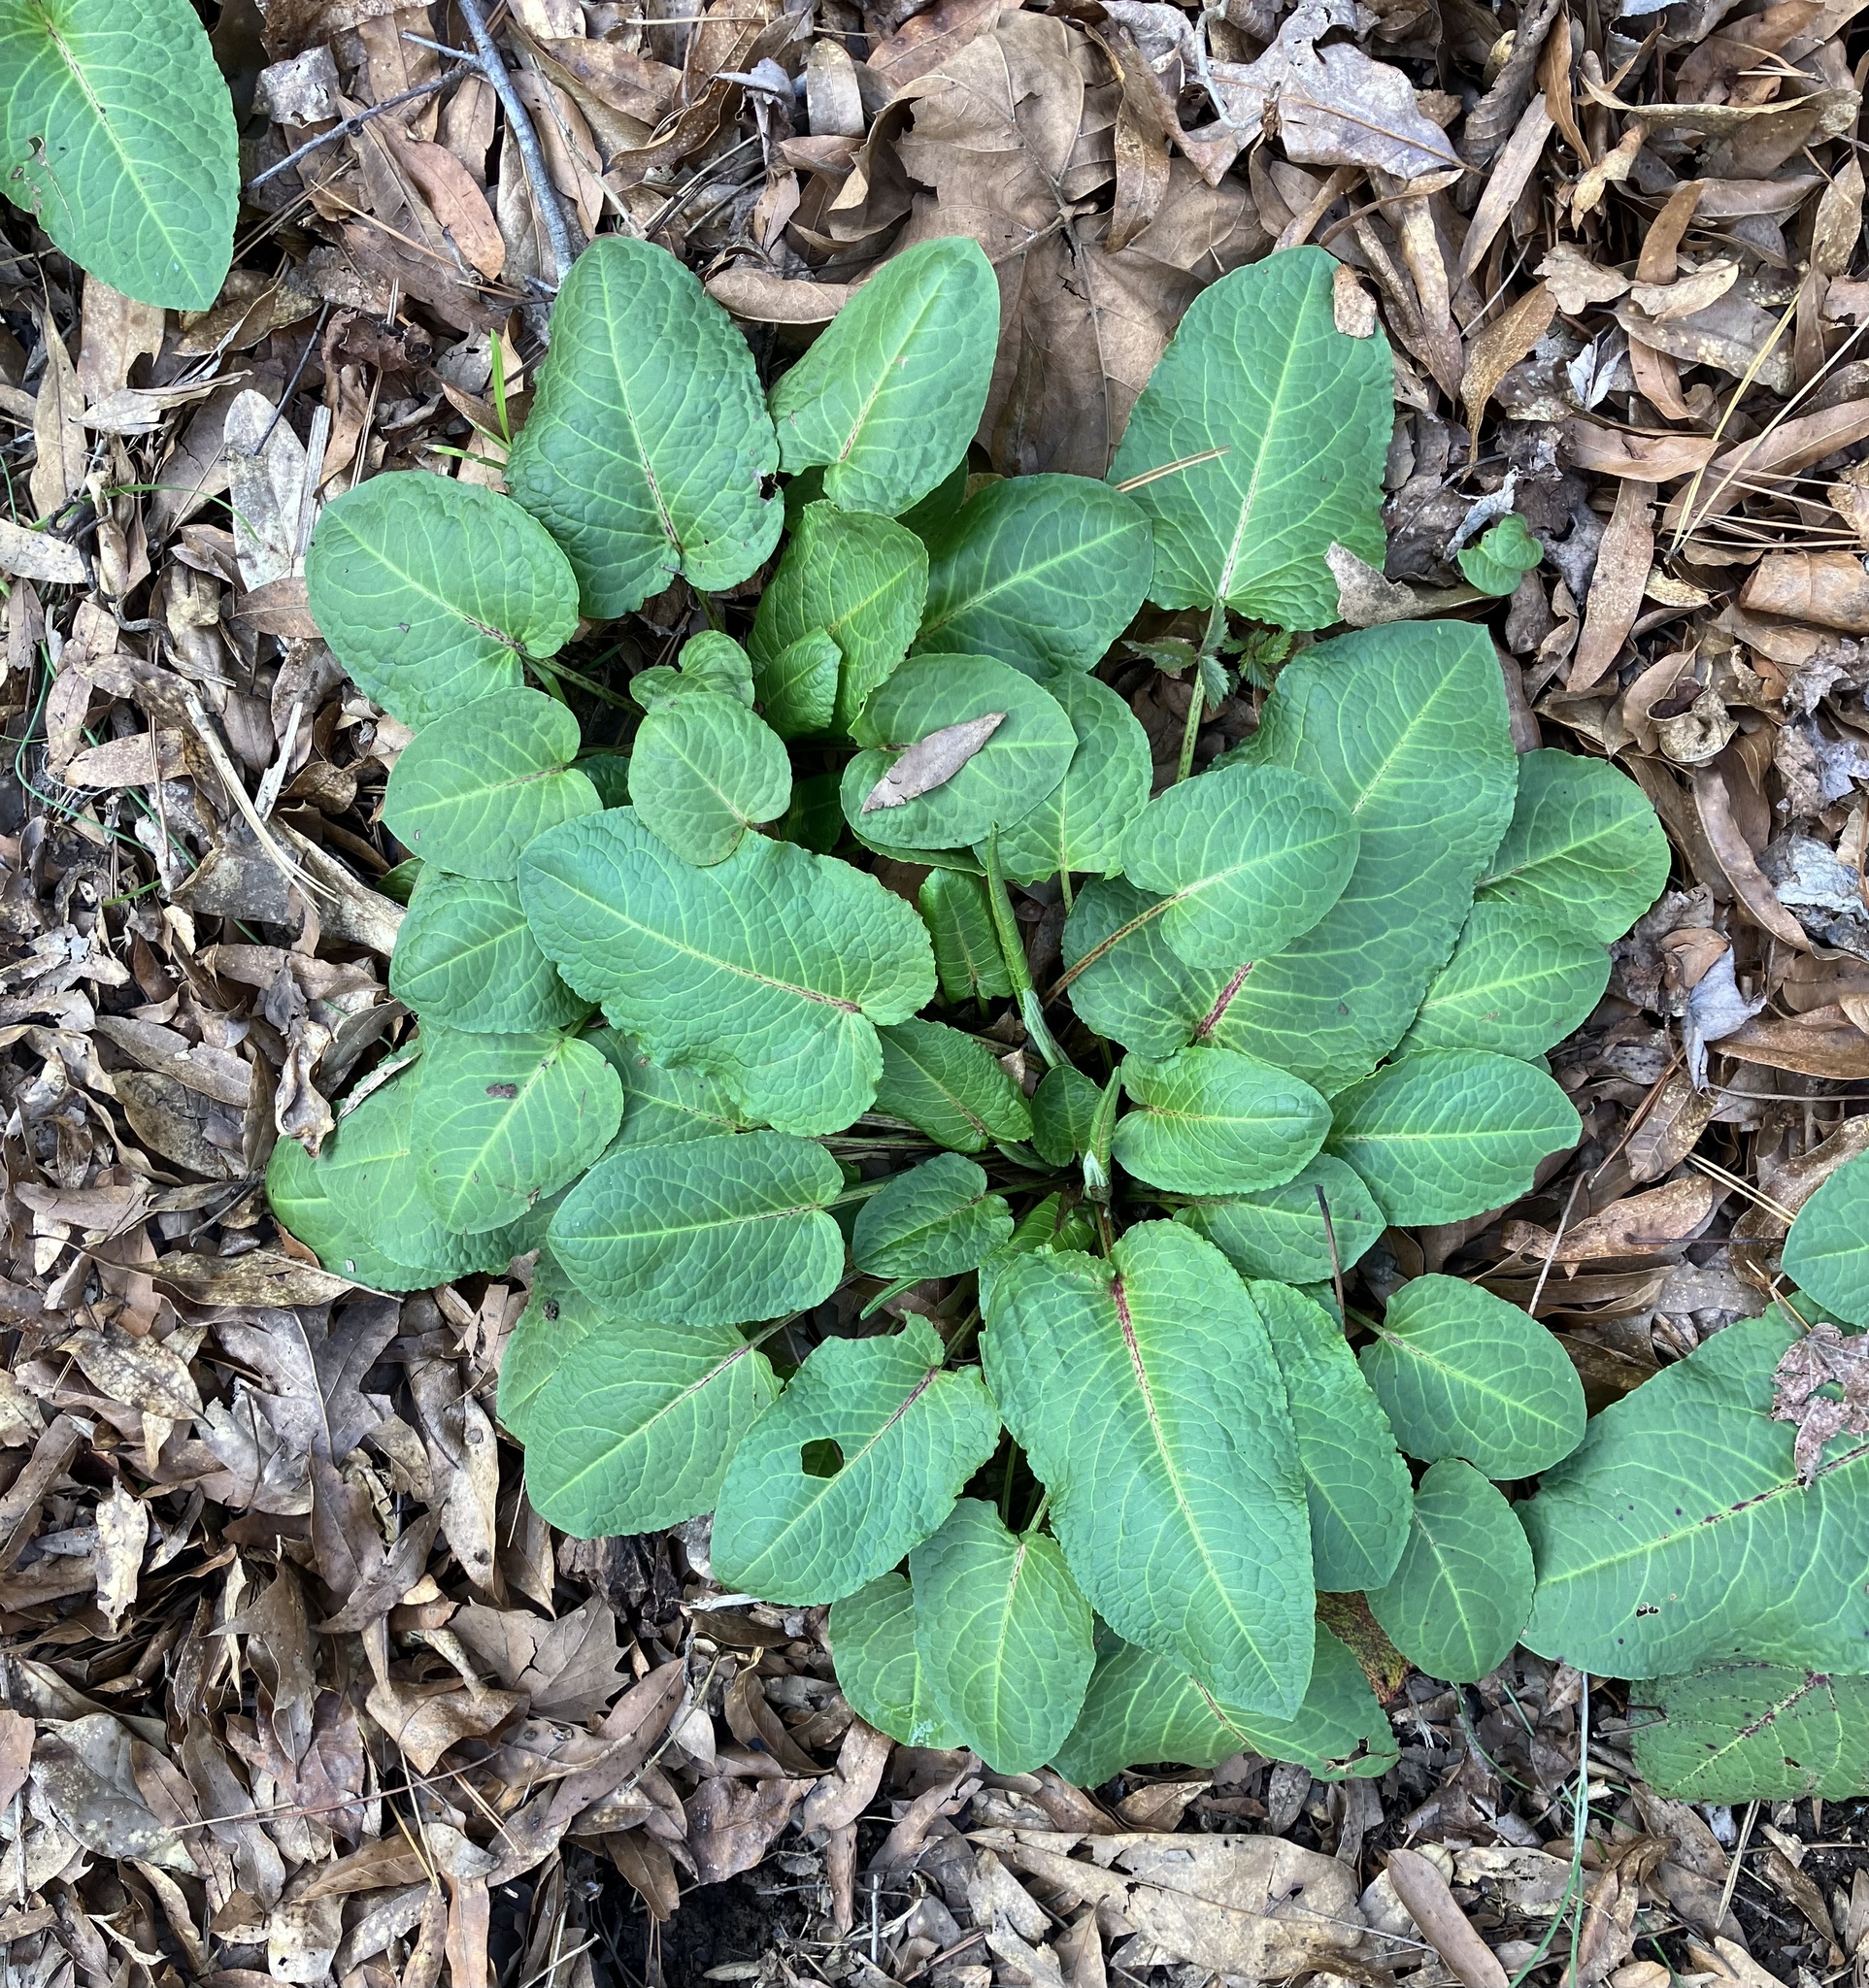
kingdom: Plantae
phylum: Tracheophyta
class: Magnoliopsida
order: Caryophyllales
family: Polygonaceae
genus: Rumex
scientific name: Rumex obtusifolius
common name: Bitter dock
